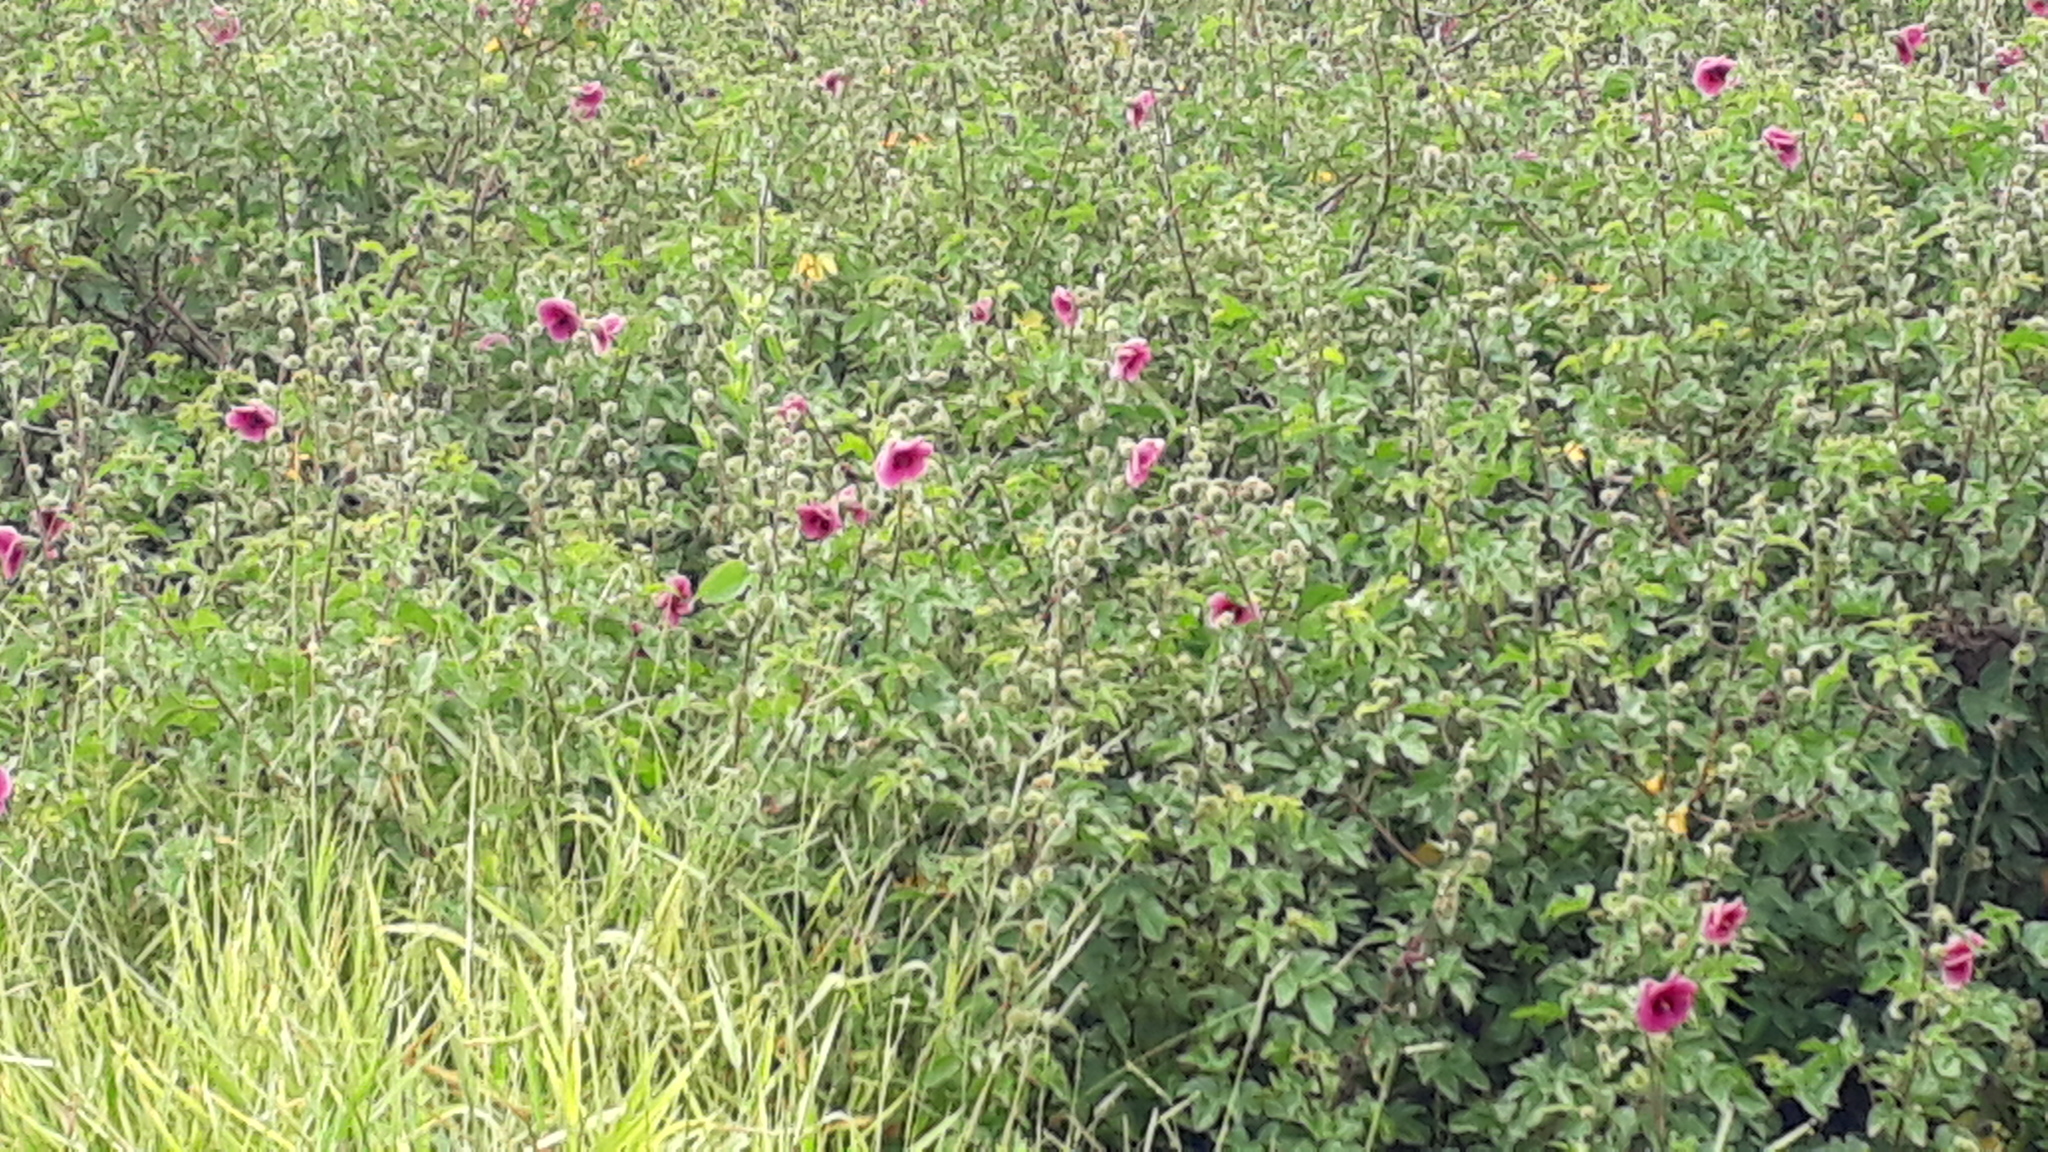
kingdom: Plantae
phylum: Tracheophyta
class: Magnoliopsida
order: Malvales
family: Malvaceae
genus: Hibiscus
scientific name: Hibiscus diversifolius
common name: Cape hibiscus
